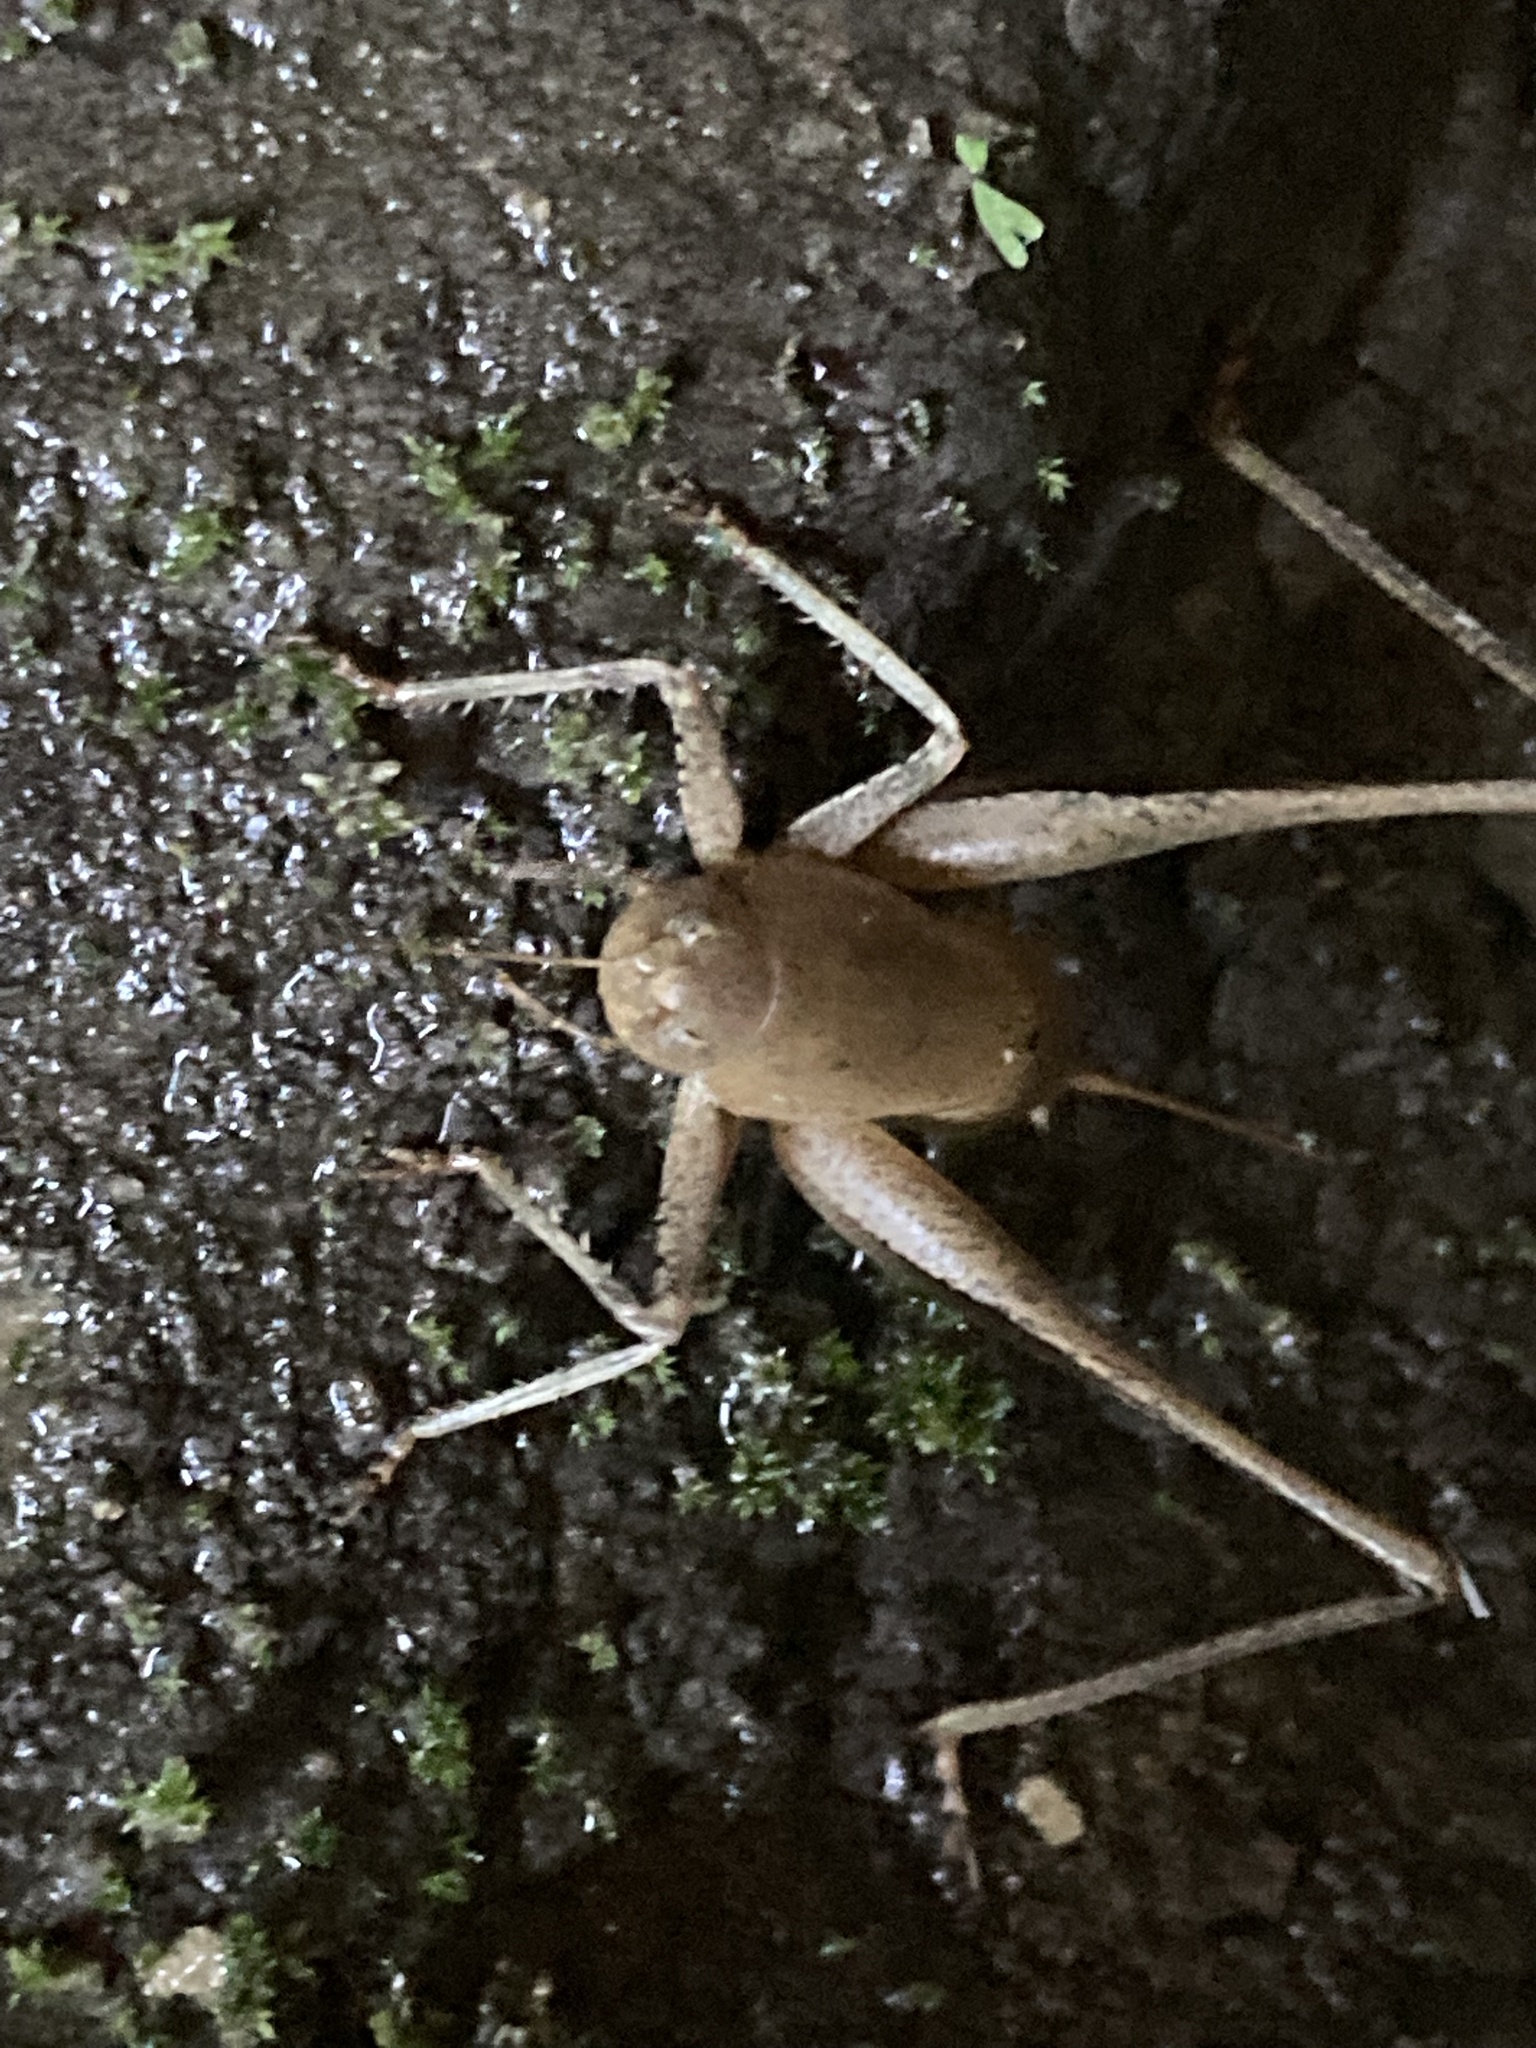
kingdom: Animalia
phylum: Arthropoda
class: Insecta
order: Orthoptera
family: Tettigoniidae
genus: Thyreonotus
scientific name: Thyreonotus corsicus
